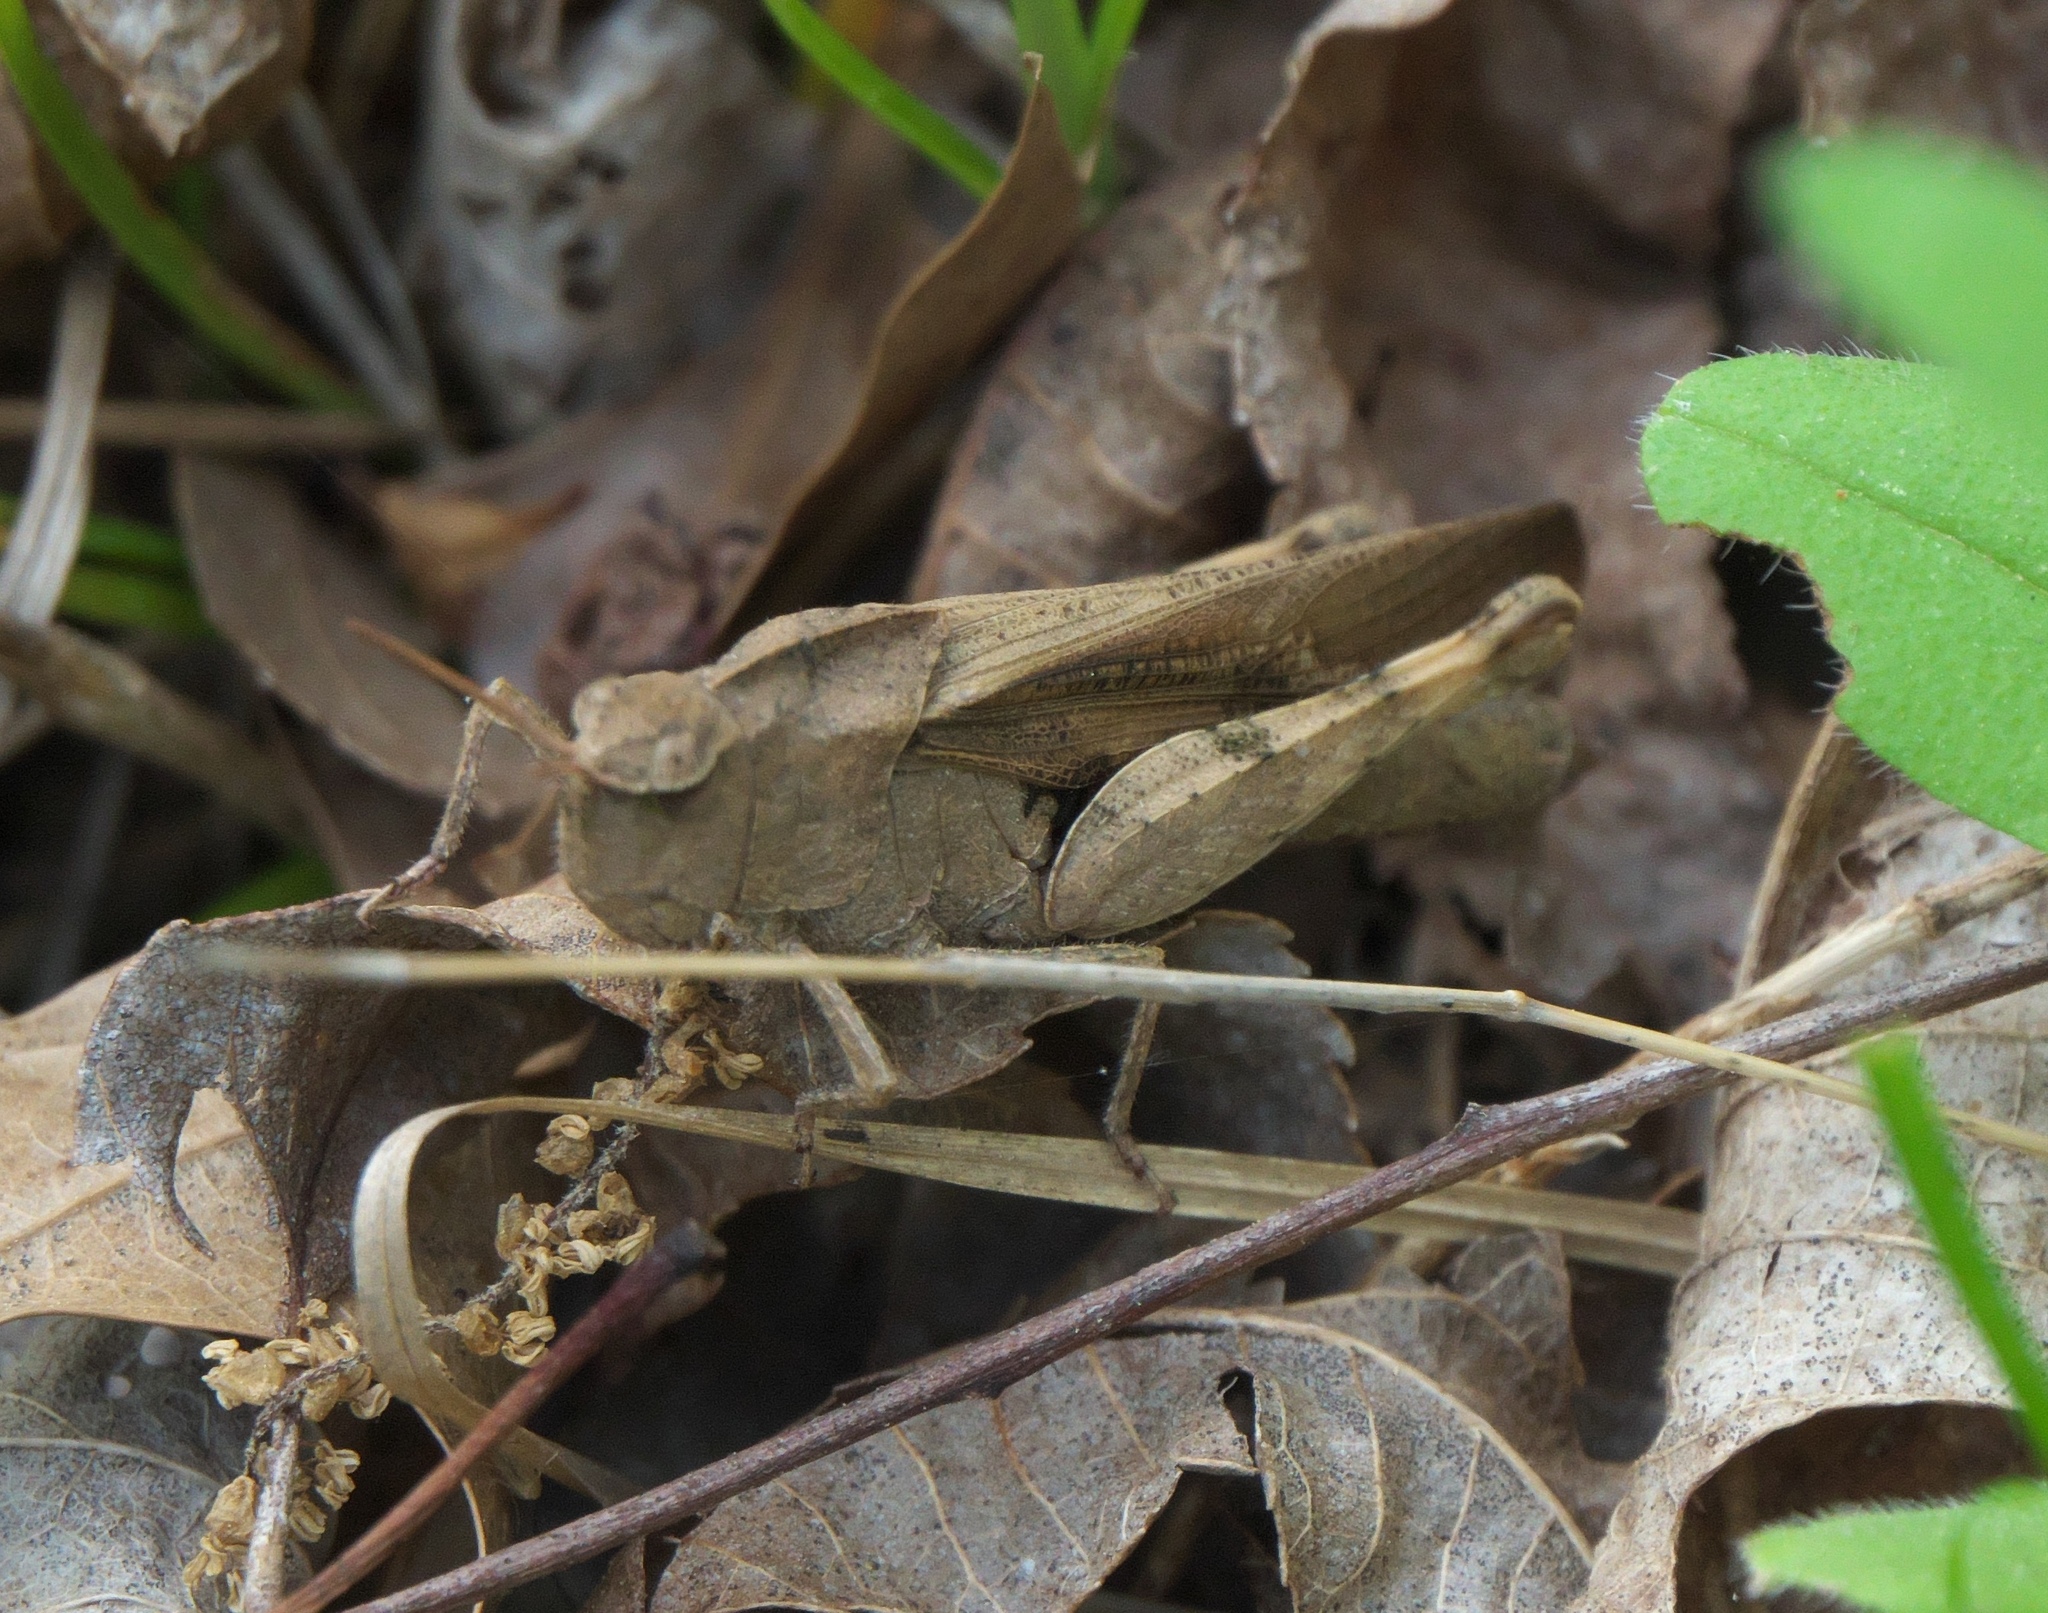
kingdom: Animalia
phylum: Arthropoda
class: Insecta
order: Orthoptera
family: Acrididae
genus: Chortophaga
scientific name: Chortophaga viridifasciata
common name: Green-striped grasshopper
